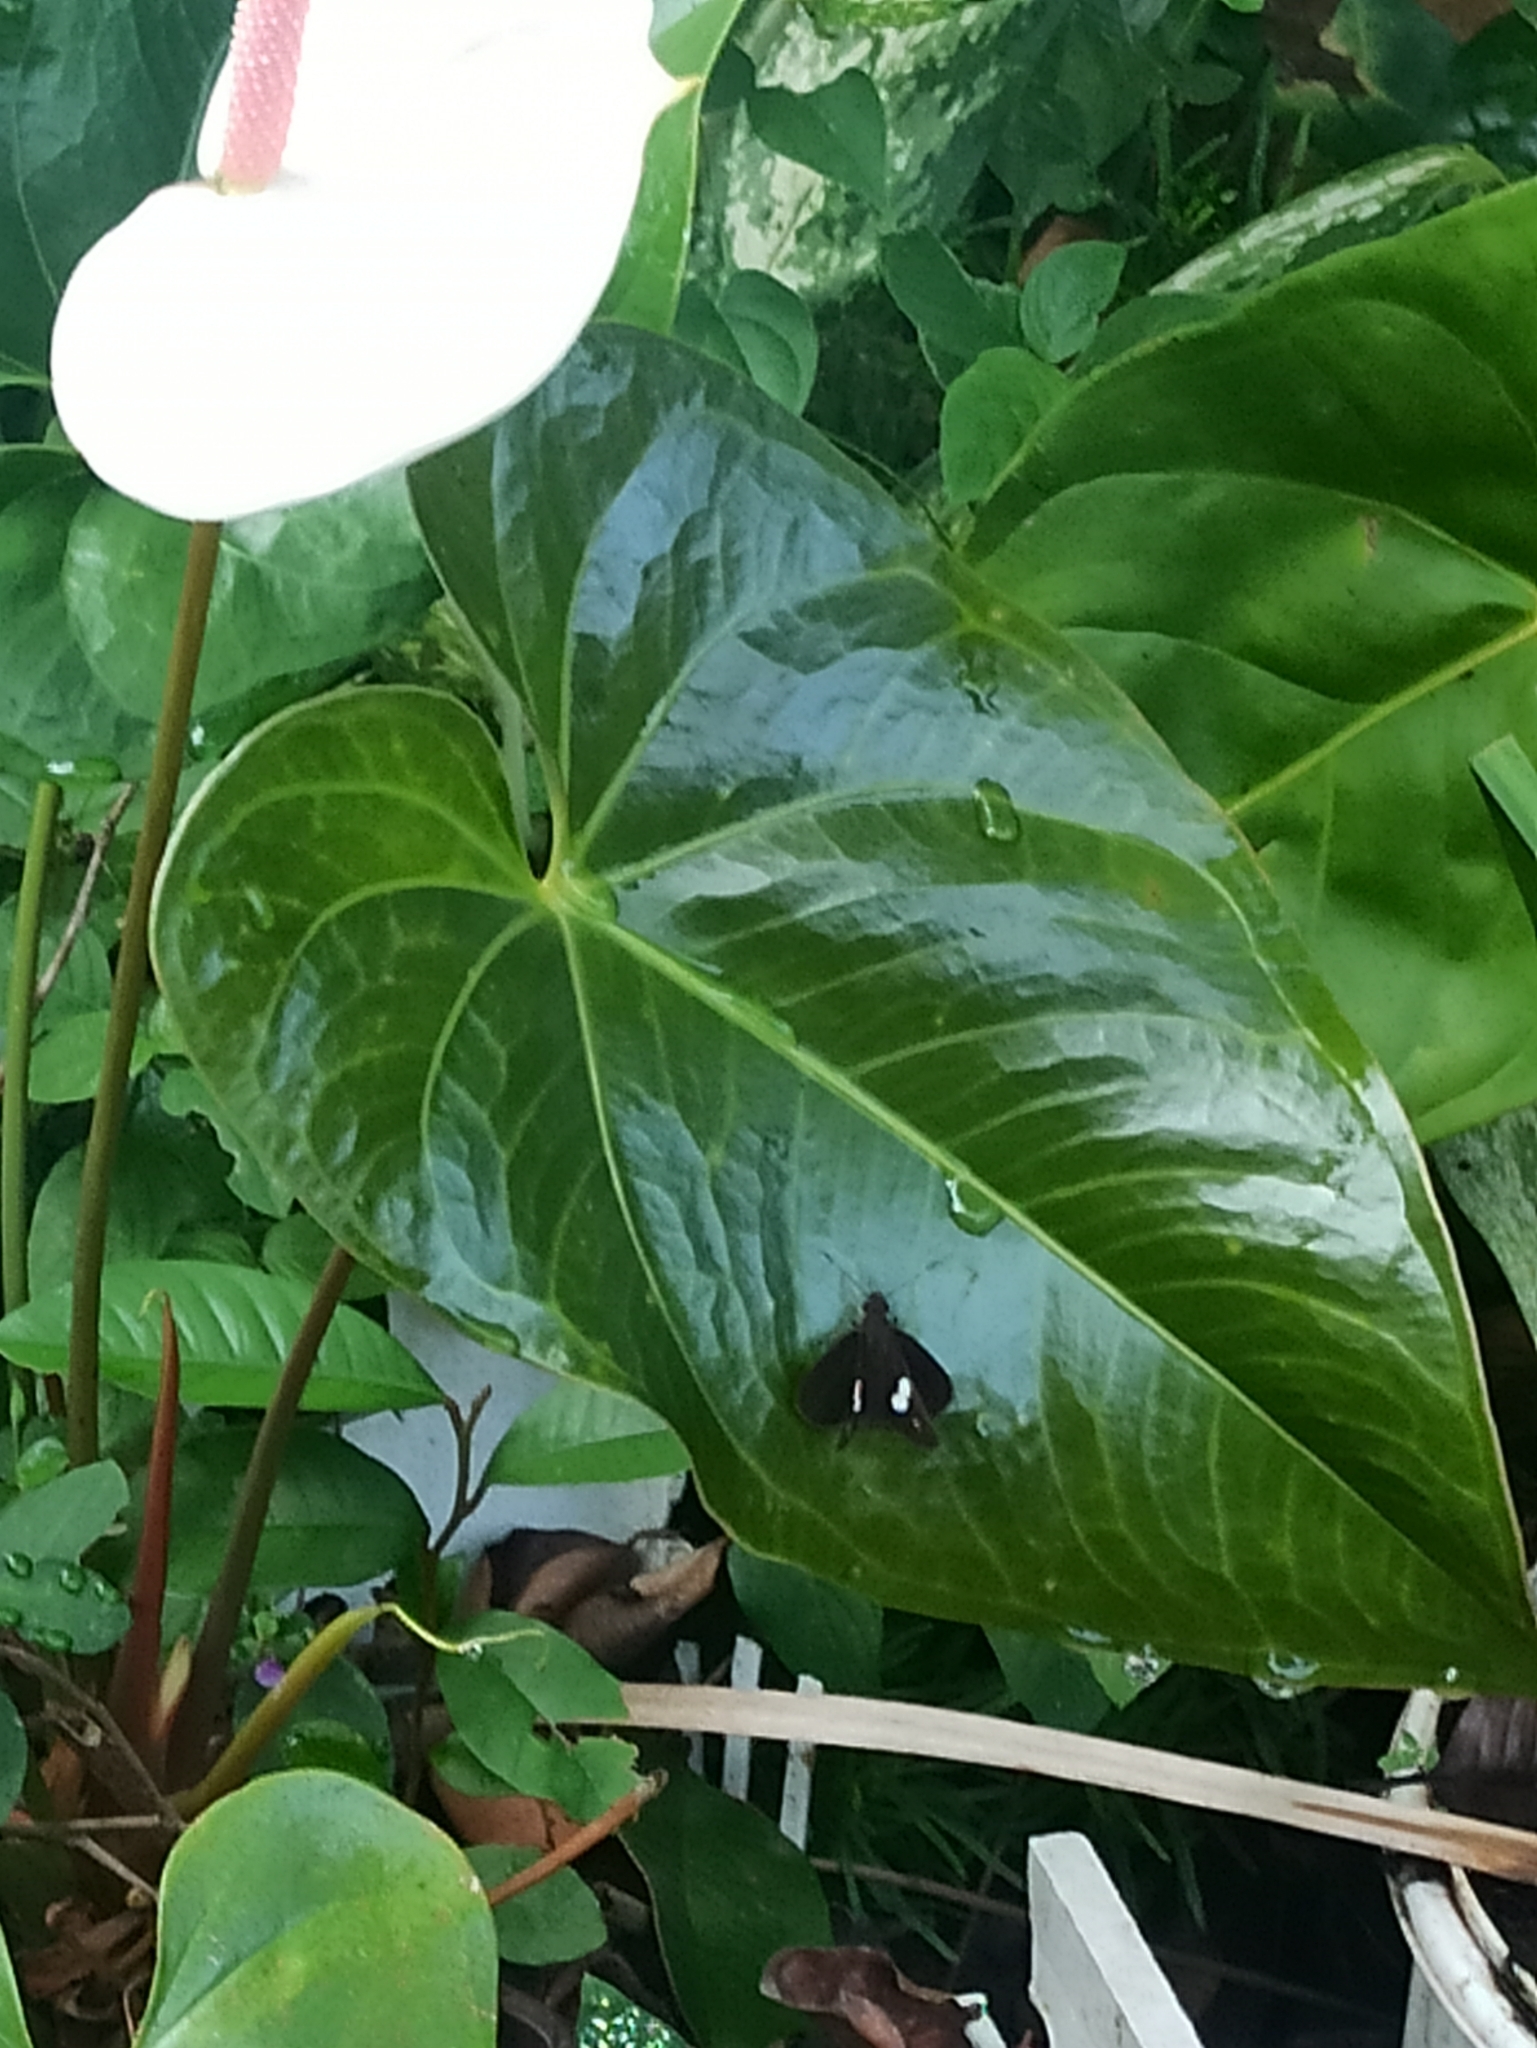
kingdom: Animalia
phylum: Arthropoda
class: Insecta
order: Lepidoptera
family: Hesperiidae
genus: Notocrypta
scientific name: Notocrypta paralysos
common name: Common banded demon
